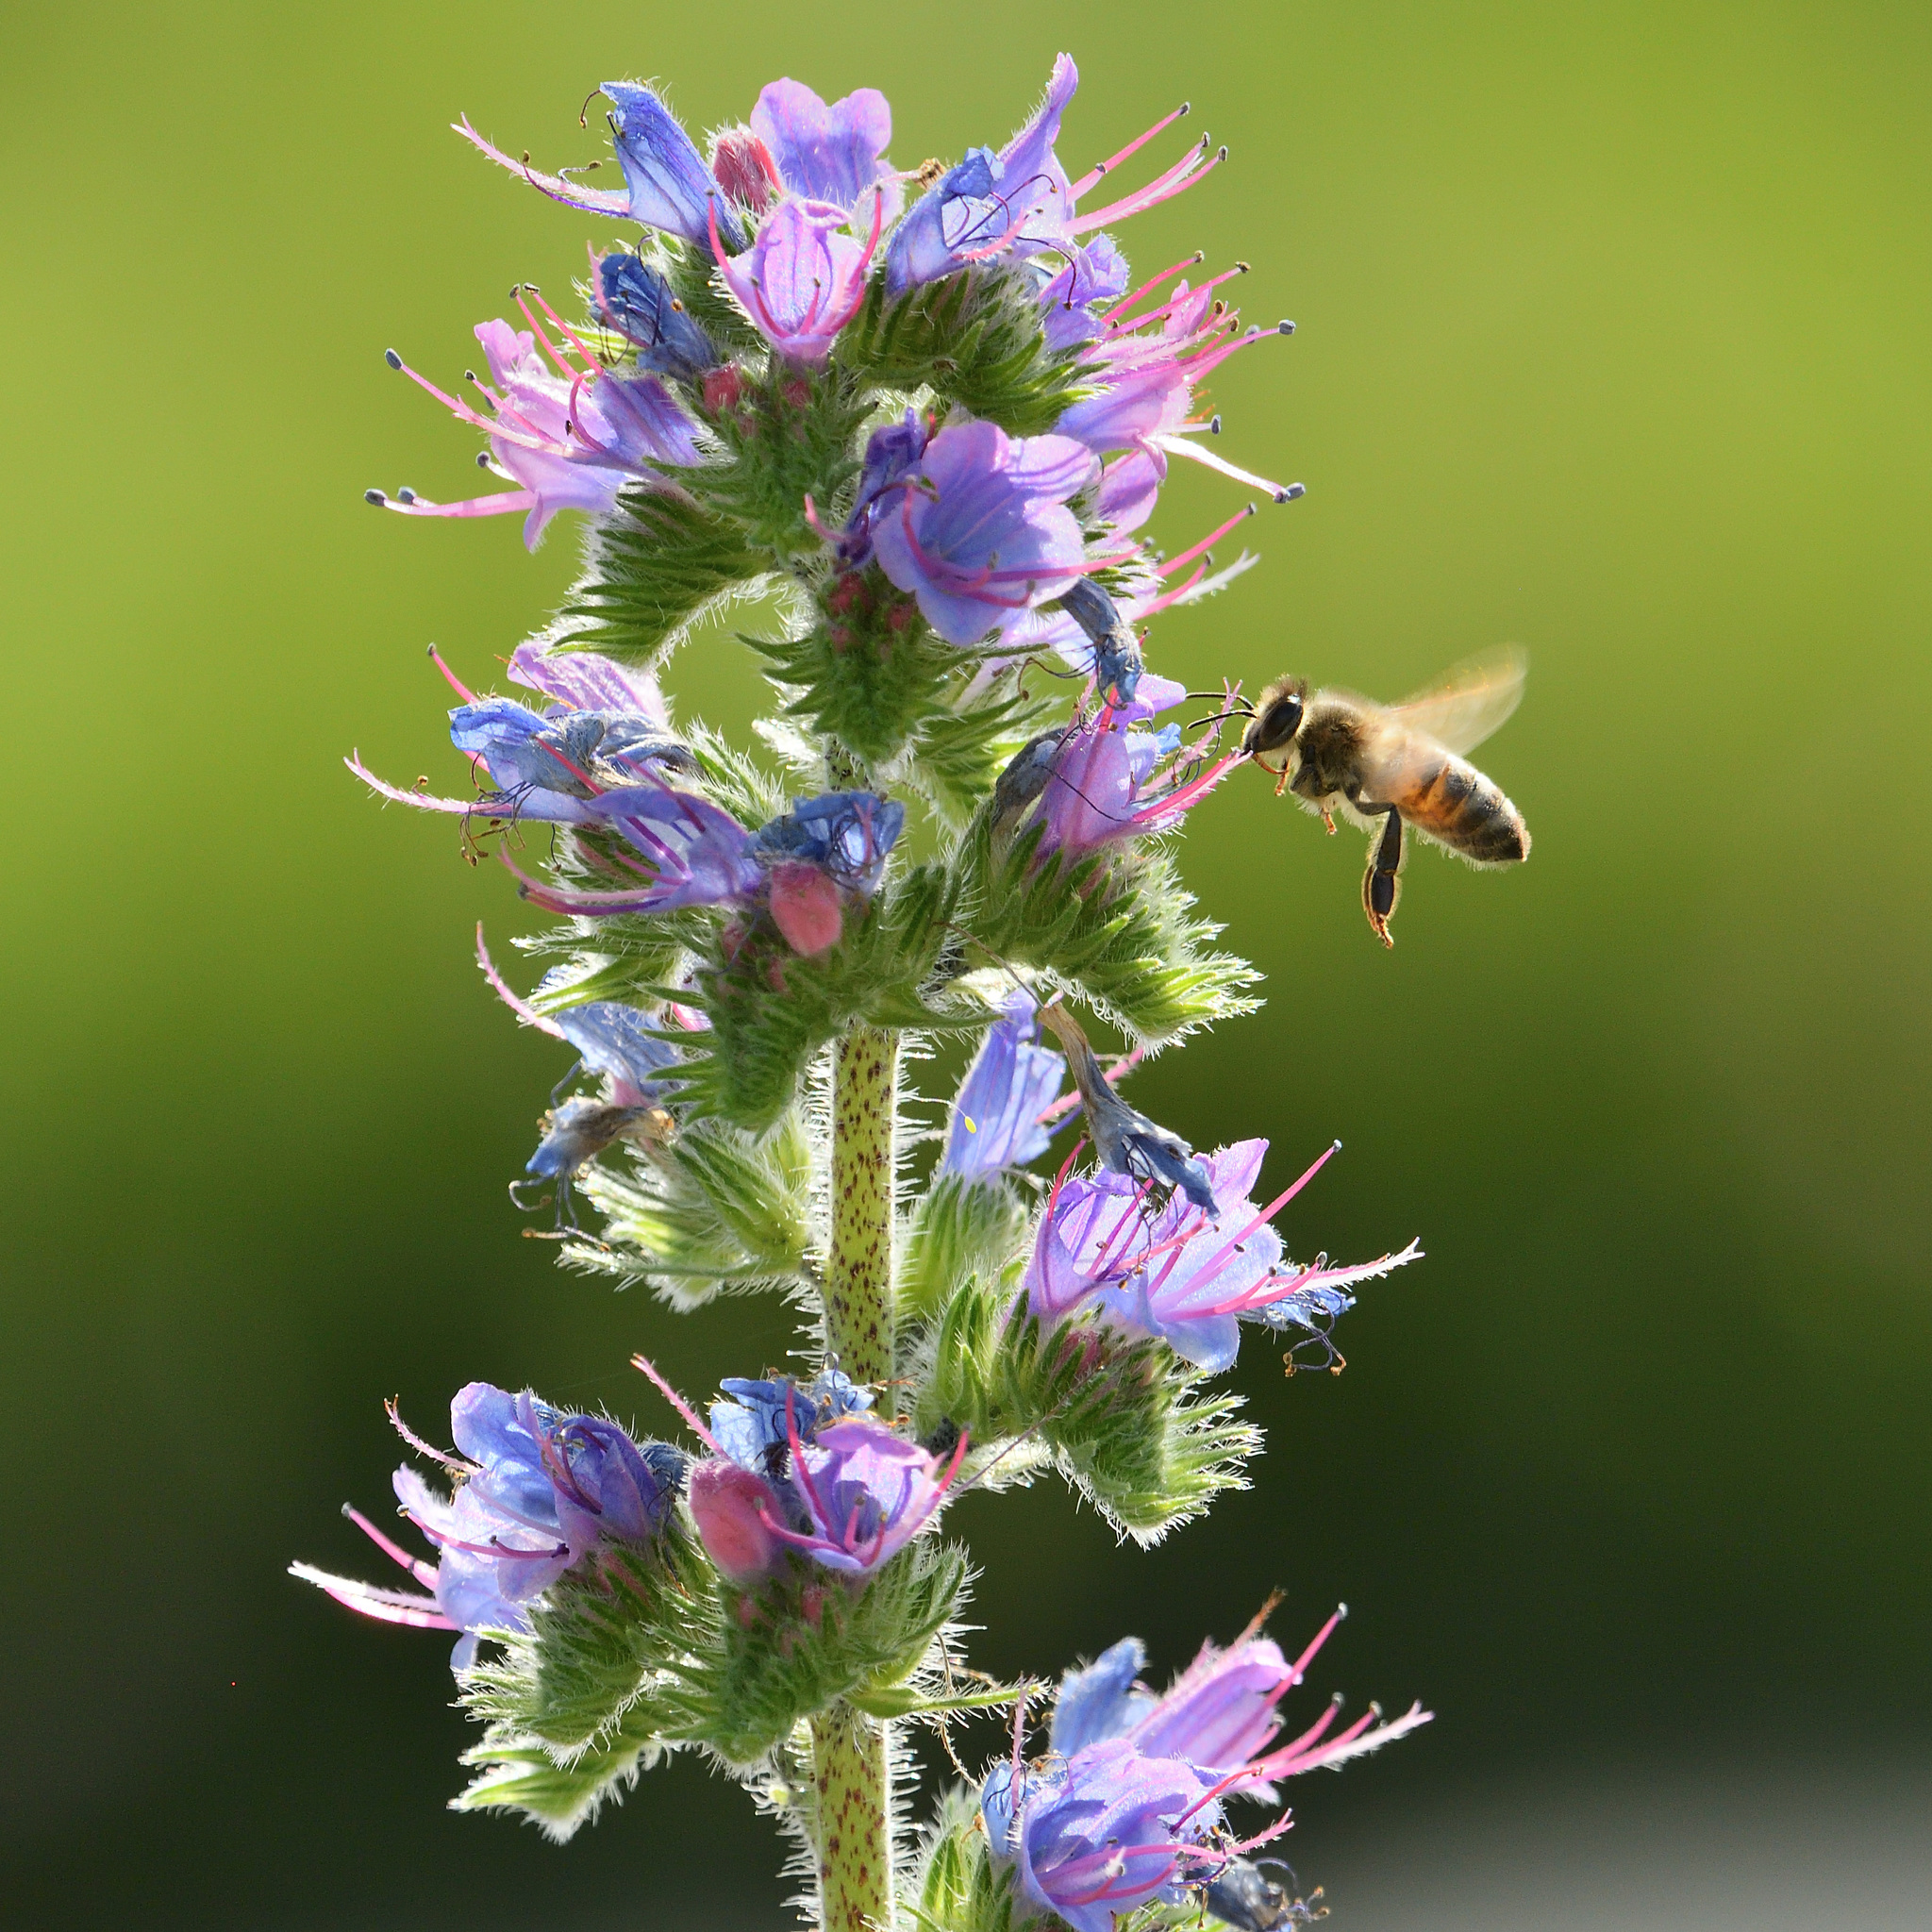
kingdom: Animalia
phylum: Arthropoda
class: Insecta
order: Hymenoptera
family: Apidae
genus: Apis
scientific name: Apis mellifera
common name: Honey bee
